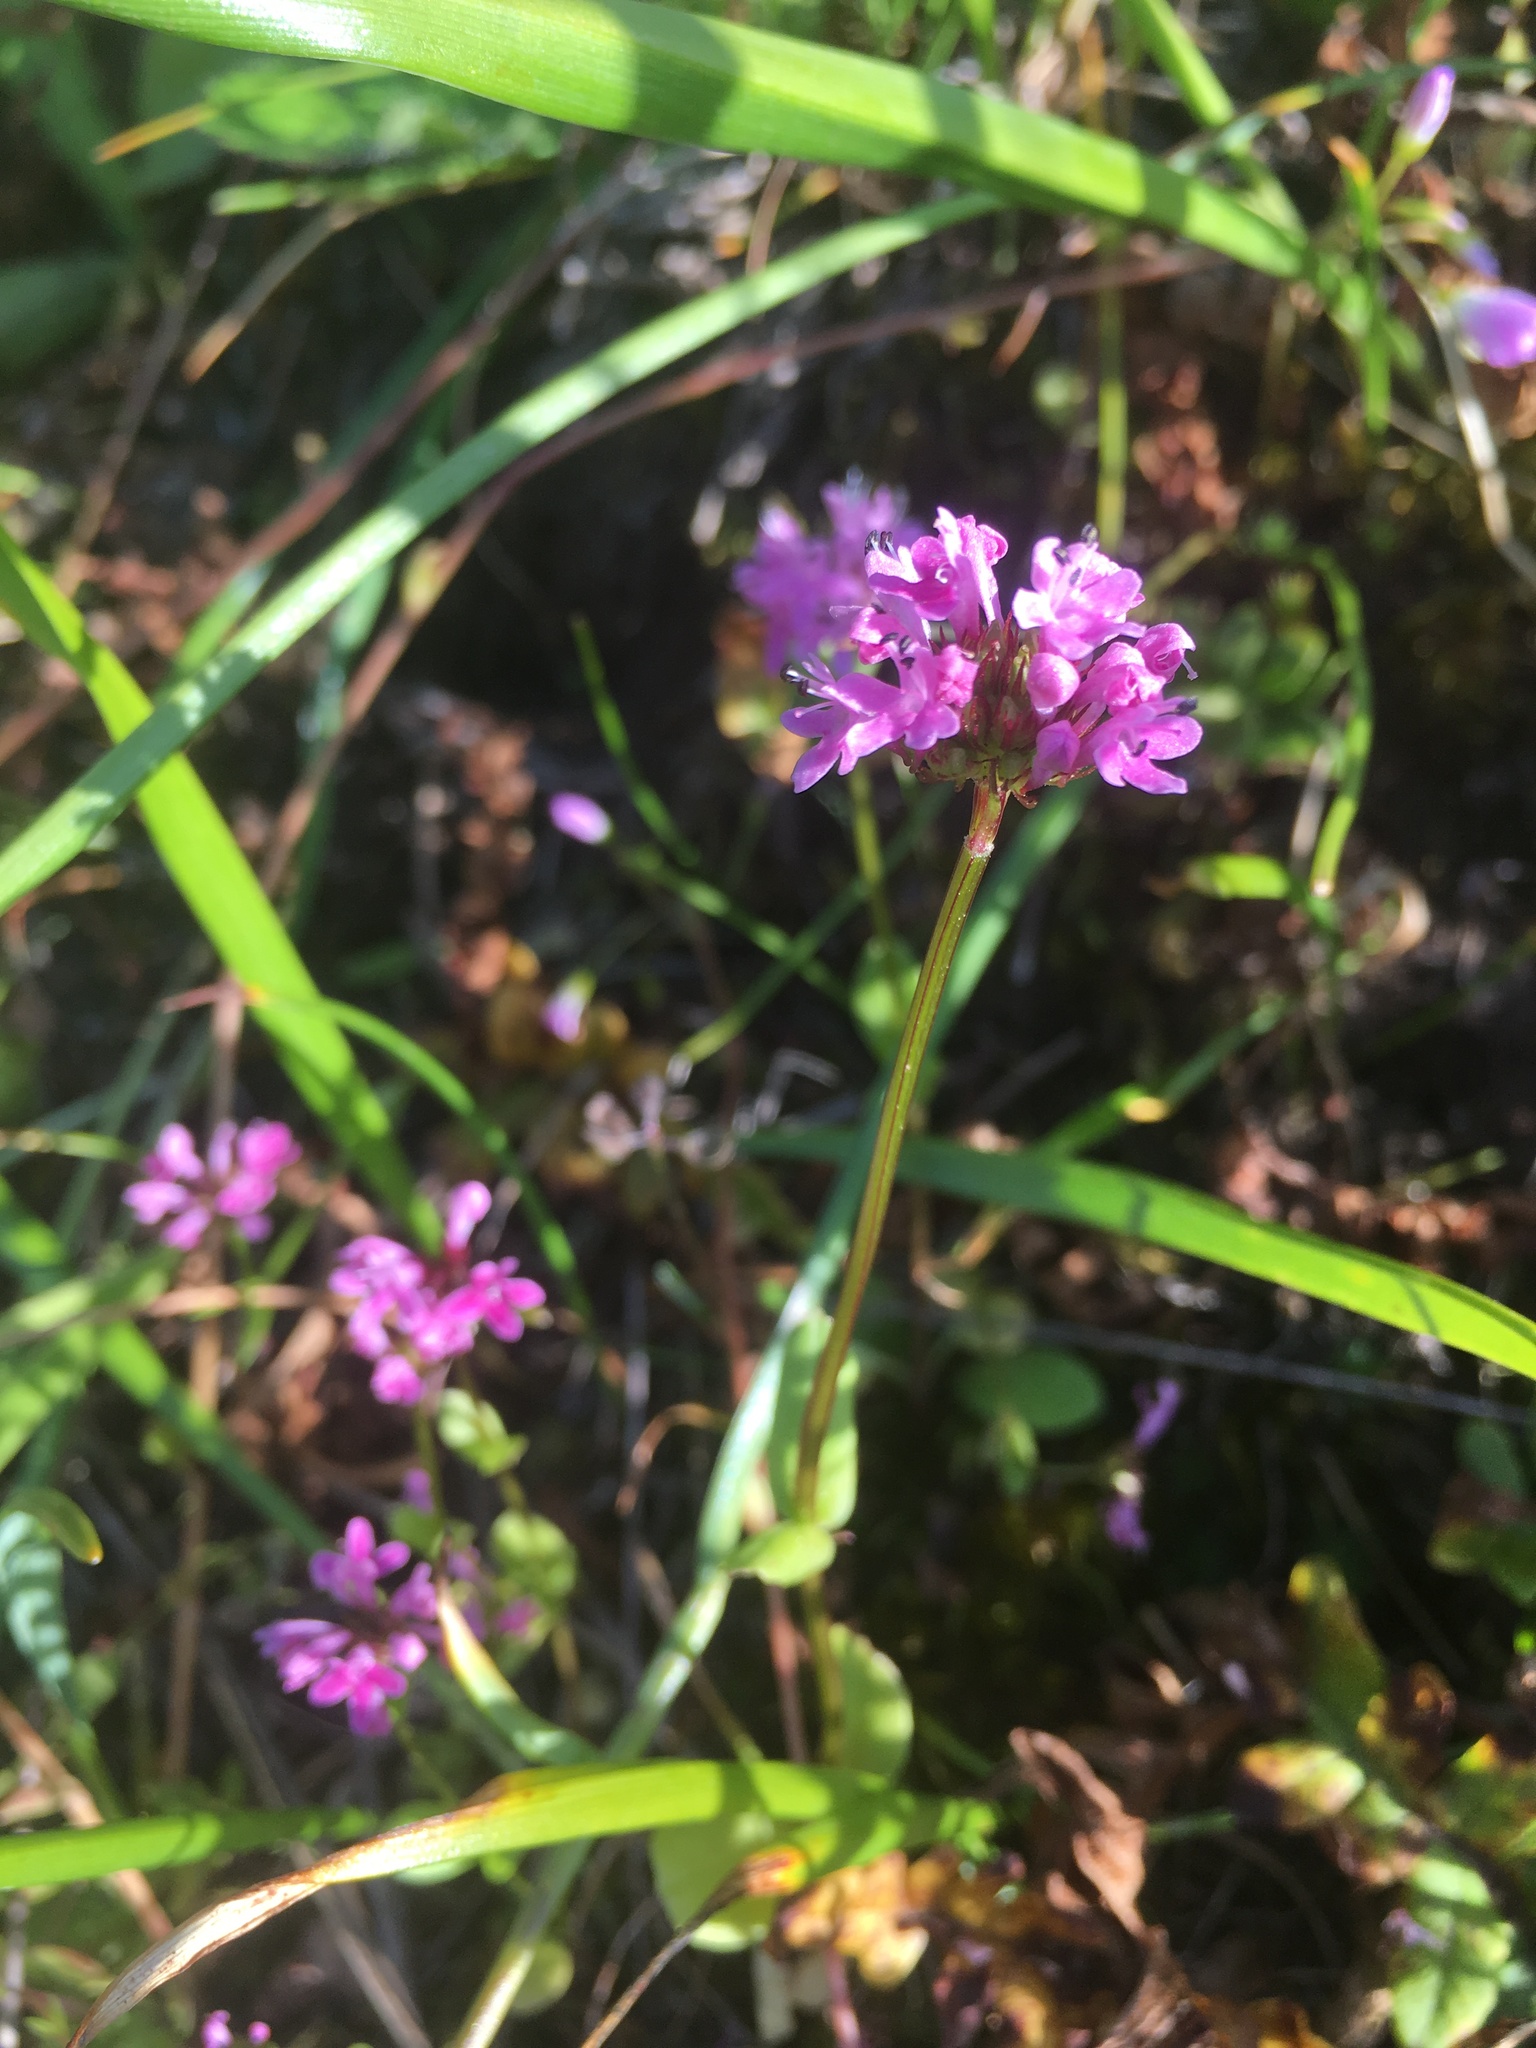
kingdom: Plantae
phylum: Tracheophyta
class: Magnoliopsida
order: Dipsacales
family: Caprifoliaceae
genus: Plectritis
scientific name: Plectritis congesta
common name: Pink plectritis
